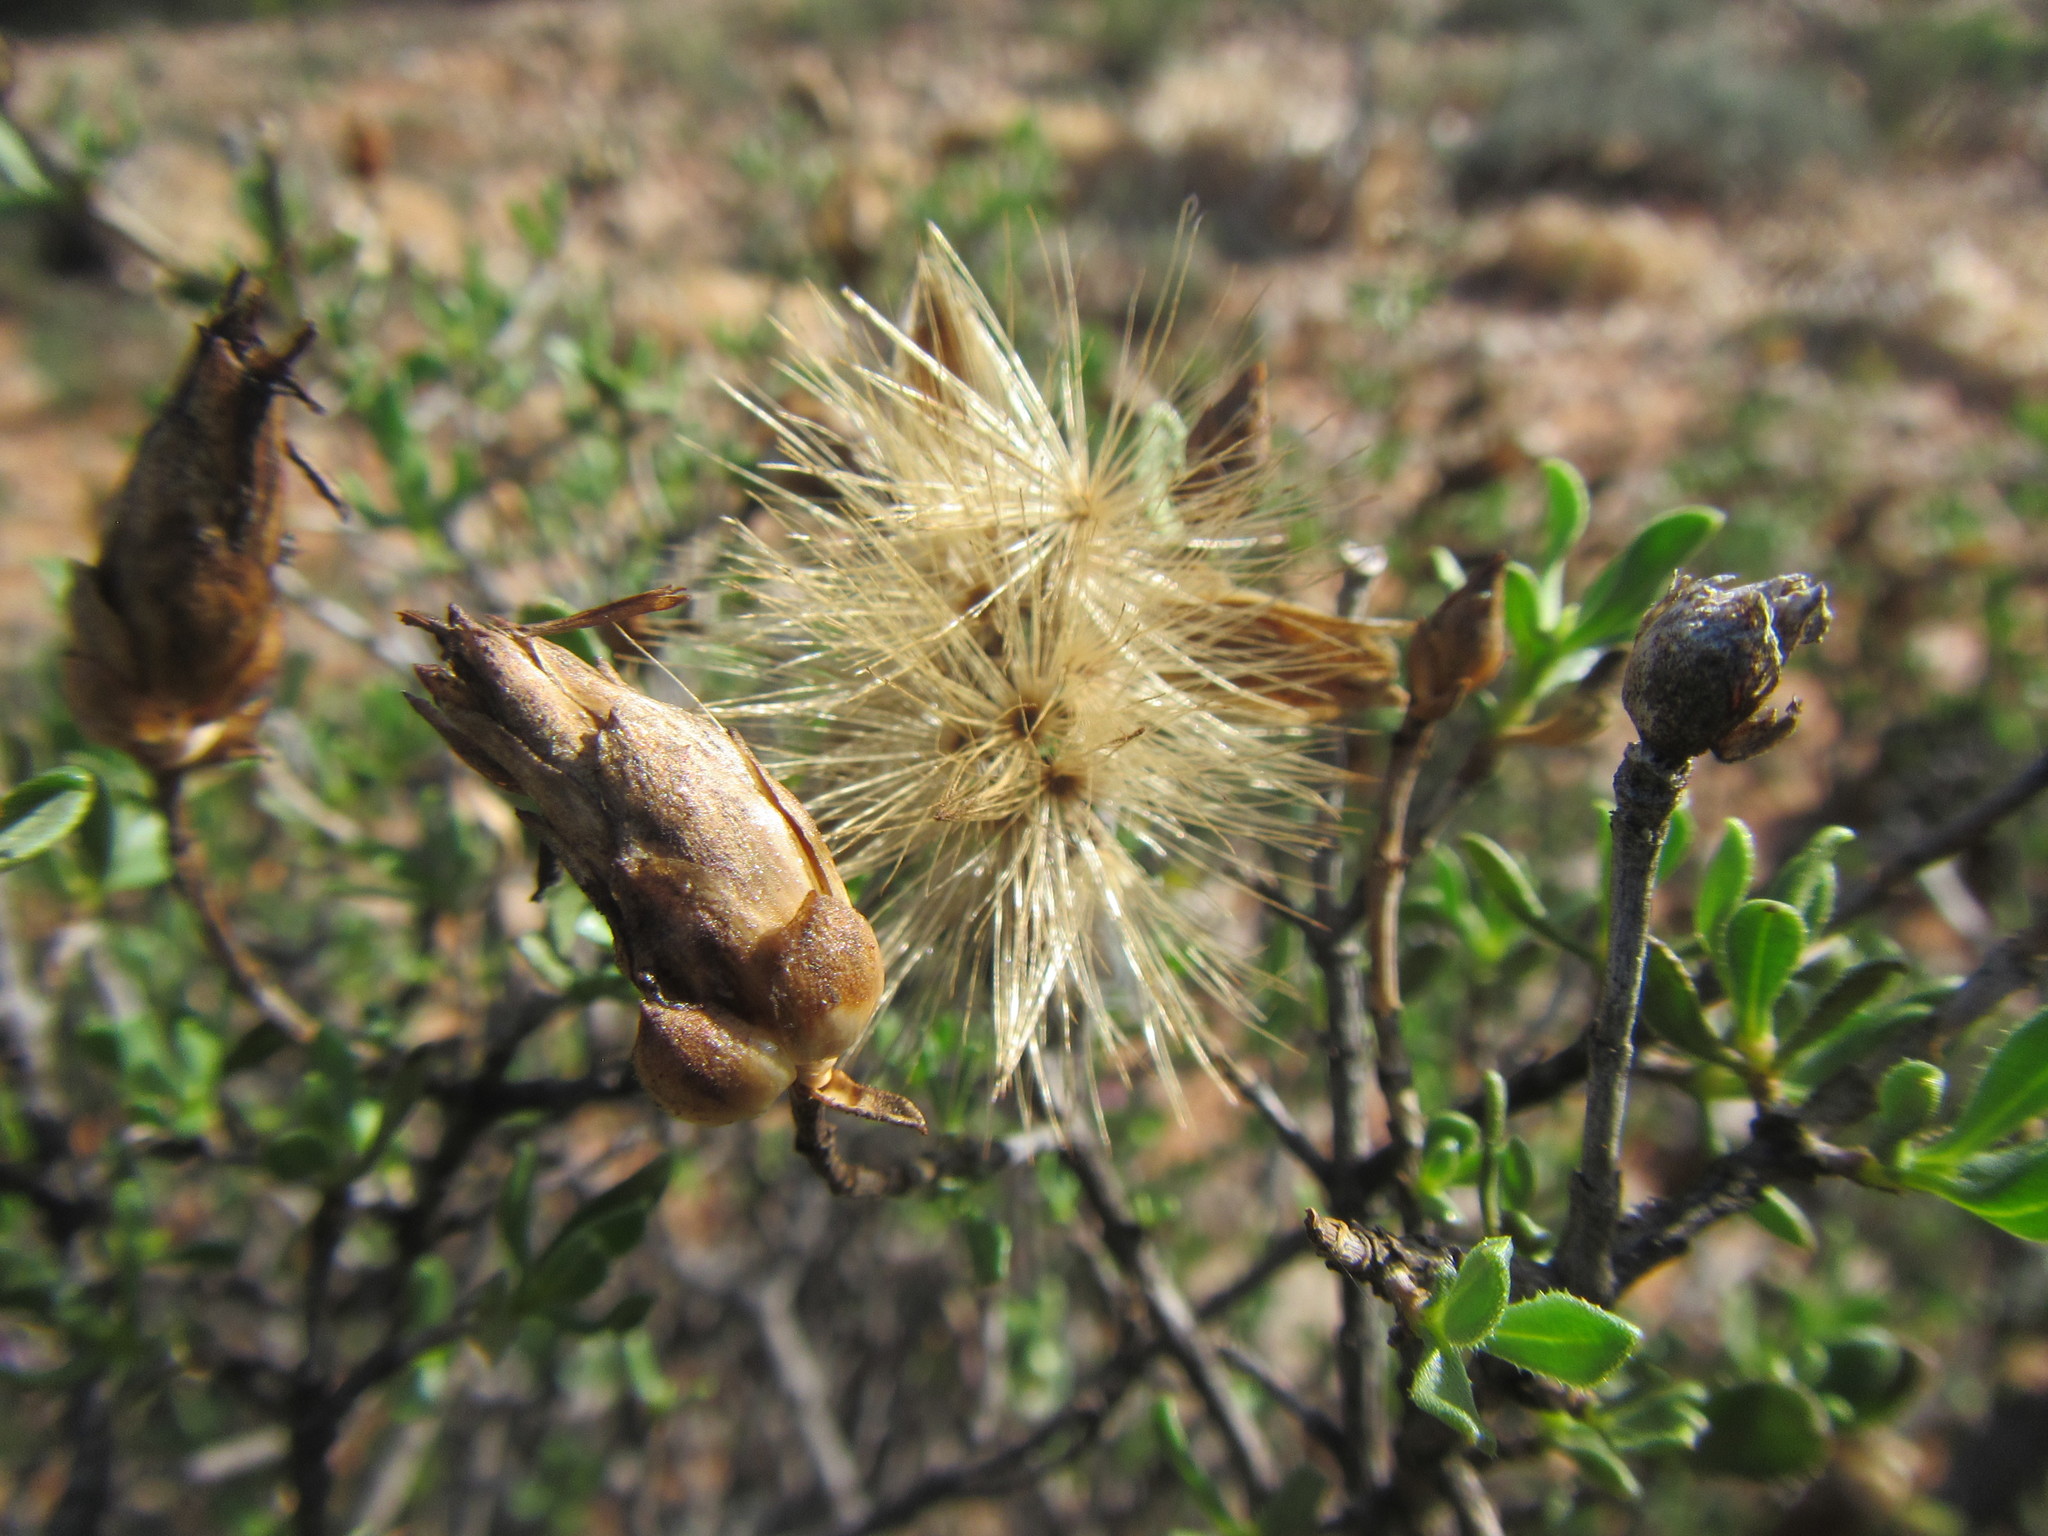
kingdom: Plantae
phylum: Tracheophyta
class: Magnoliopsida
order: Asterales
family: Asteraceae
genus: Pteronia
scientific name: Pteronia adenocarpa
